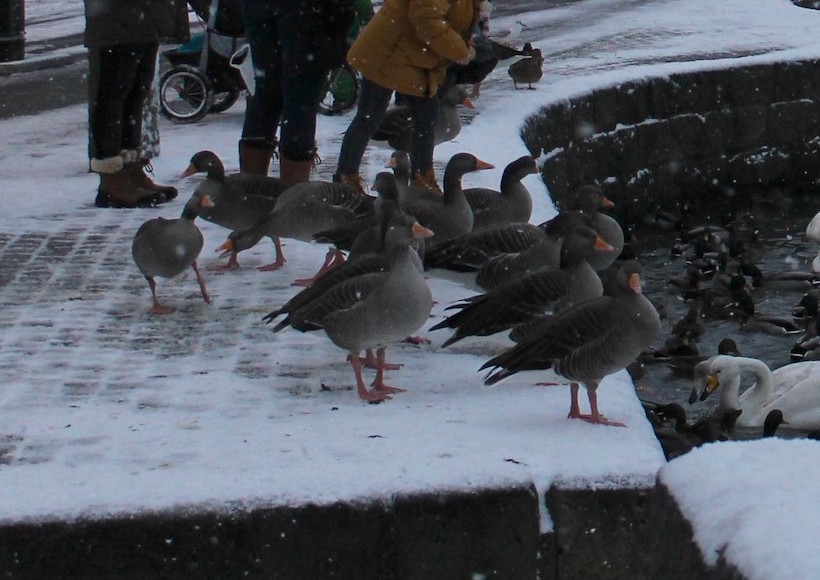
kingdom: Animalia
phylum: Chordata
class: Aves
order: Anseriformes
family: Anatidae
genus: Anser
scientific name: Anser anser
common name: Greylag goose
